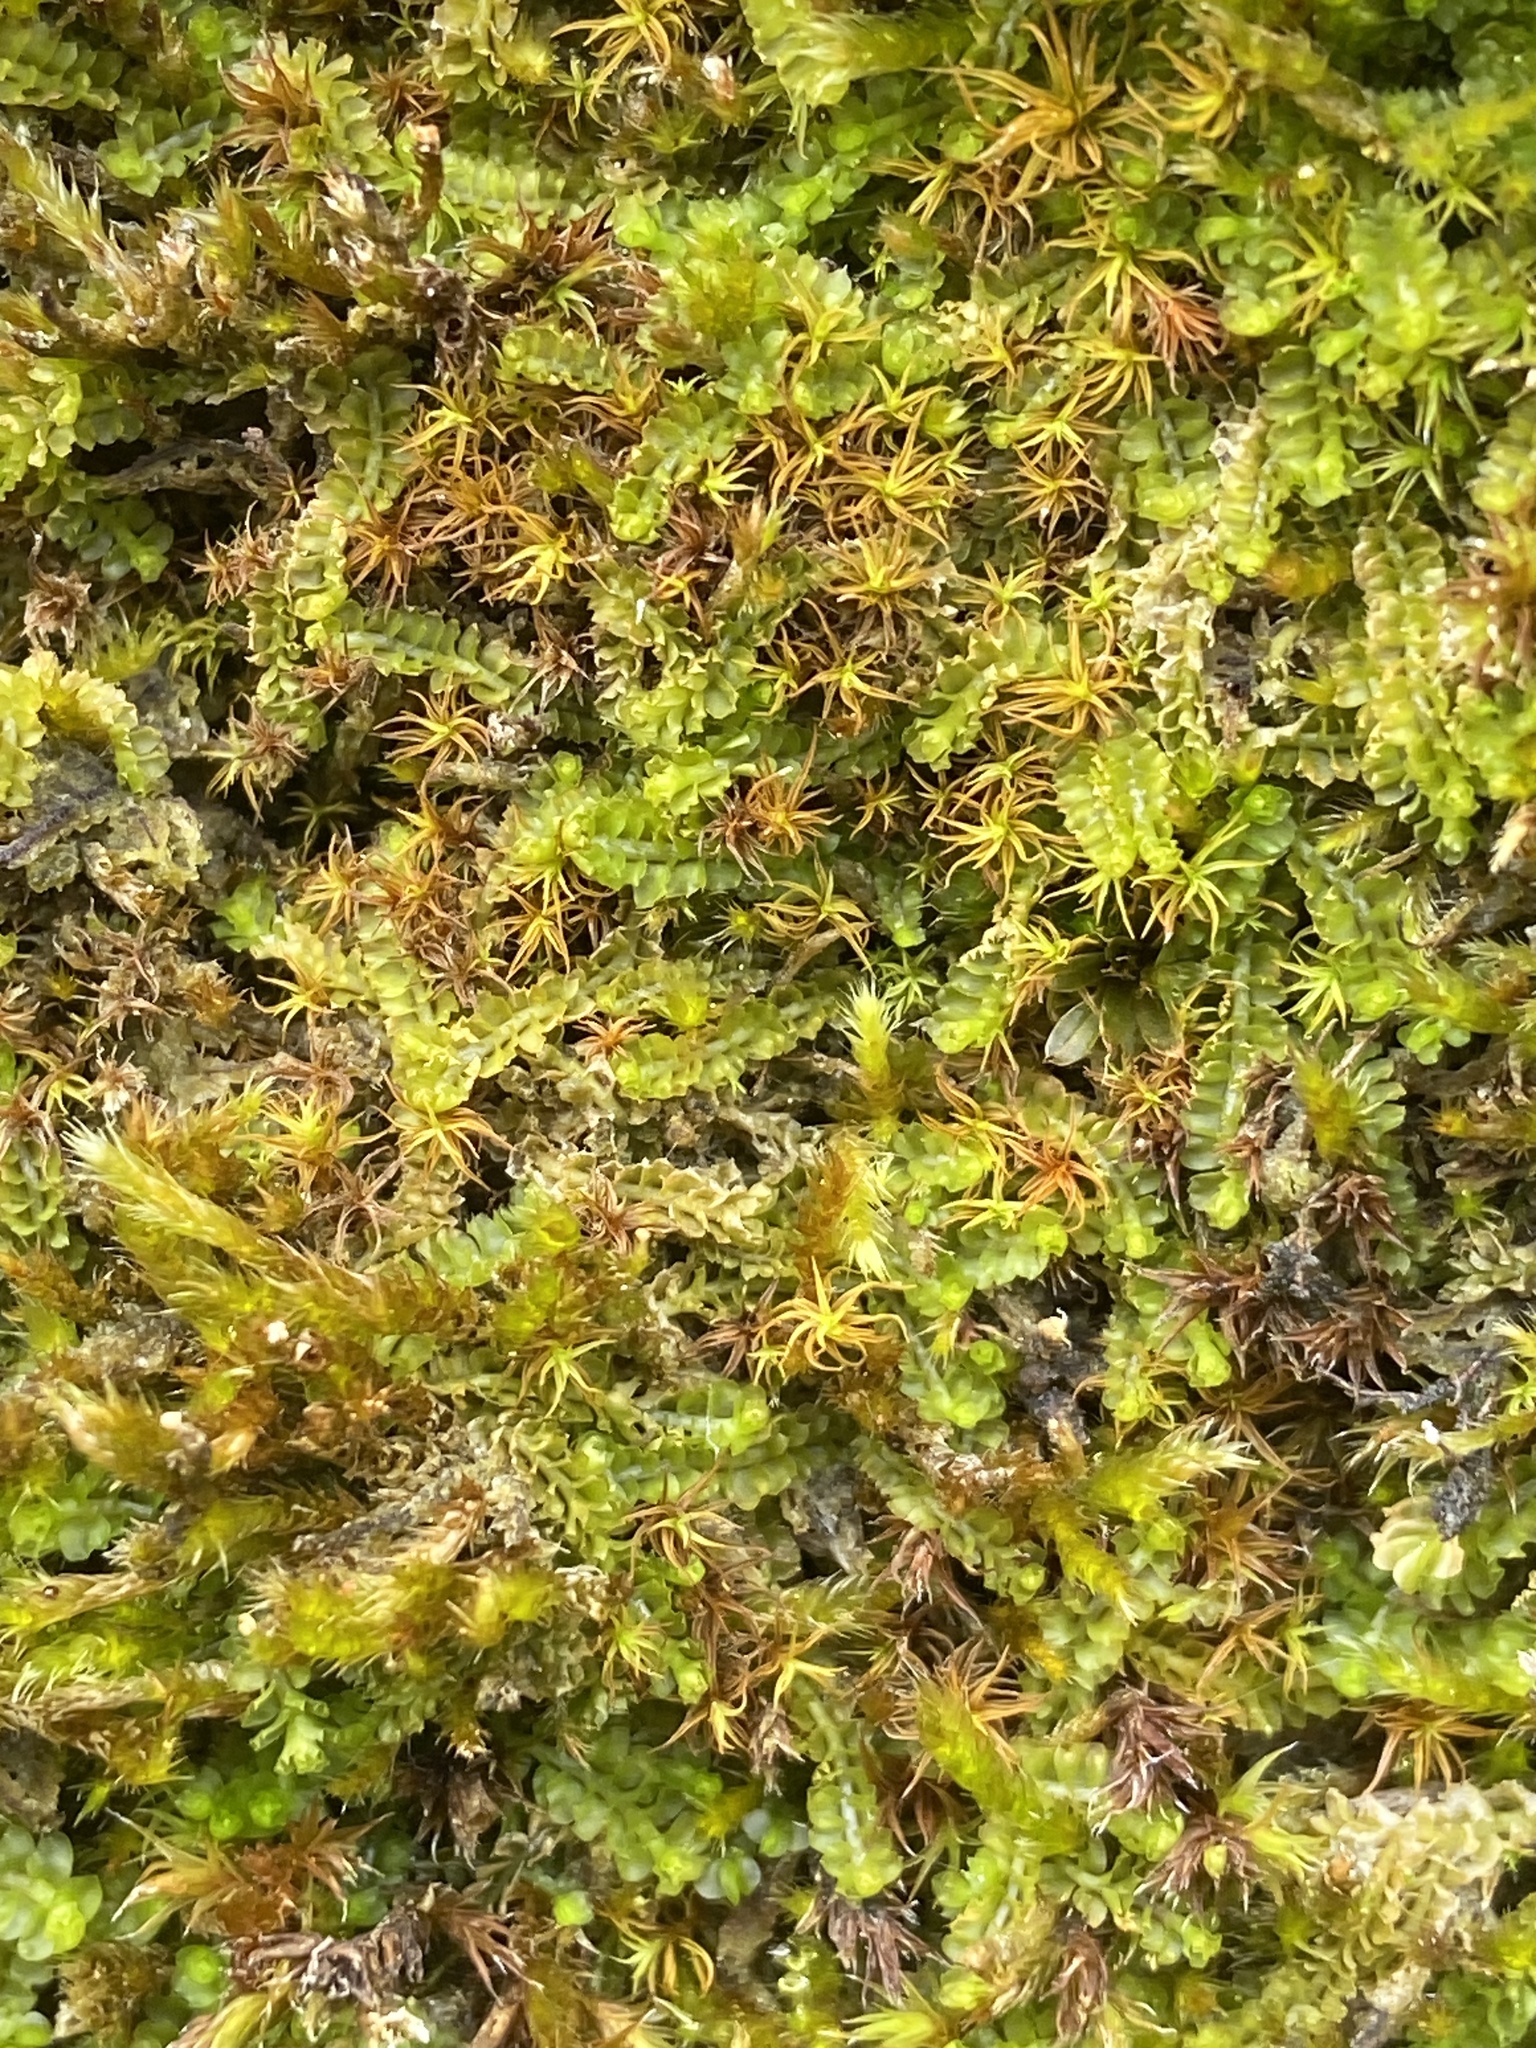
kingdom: Plantae
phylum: Marchantiophyta
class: Jungermanniopsida
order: Jungermanniales
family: Lophoziaceae
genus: Trilophozia
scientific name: Trilophozia quinquedentata
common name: Large notchwort
